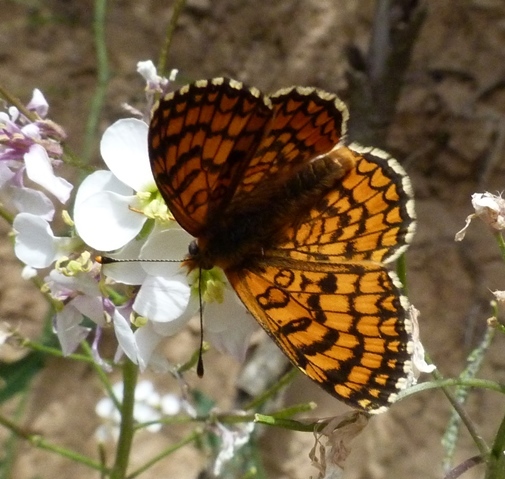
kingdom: Animalia
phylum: Arthropoda
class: Insecta
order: Lepidoptera
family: Nymphalidae
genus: Melitaea
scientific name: Melitaea deione
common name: Provençal fritillary
